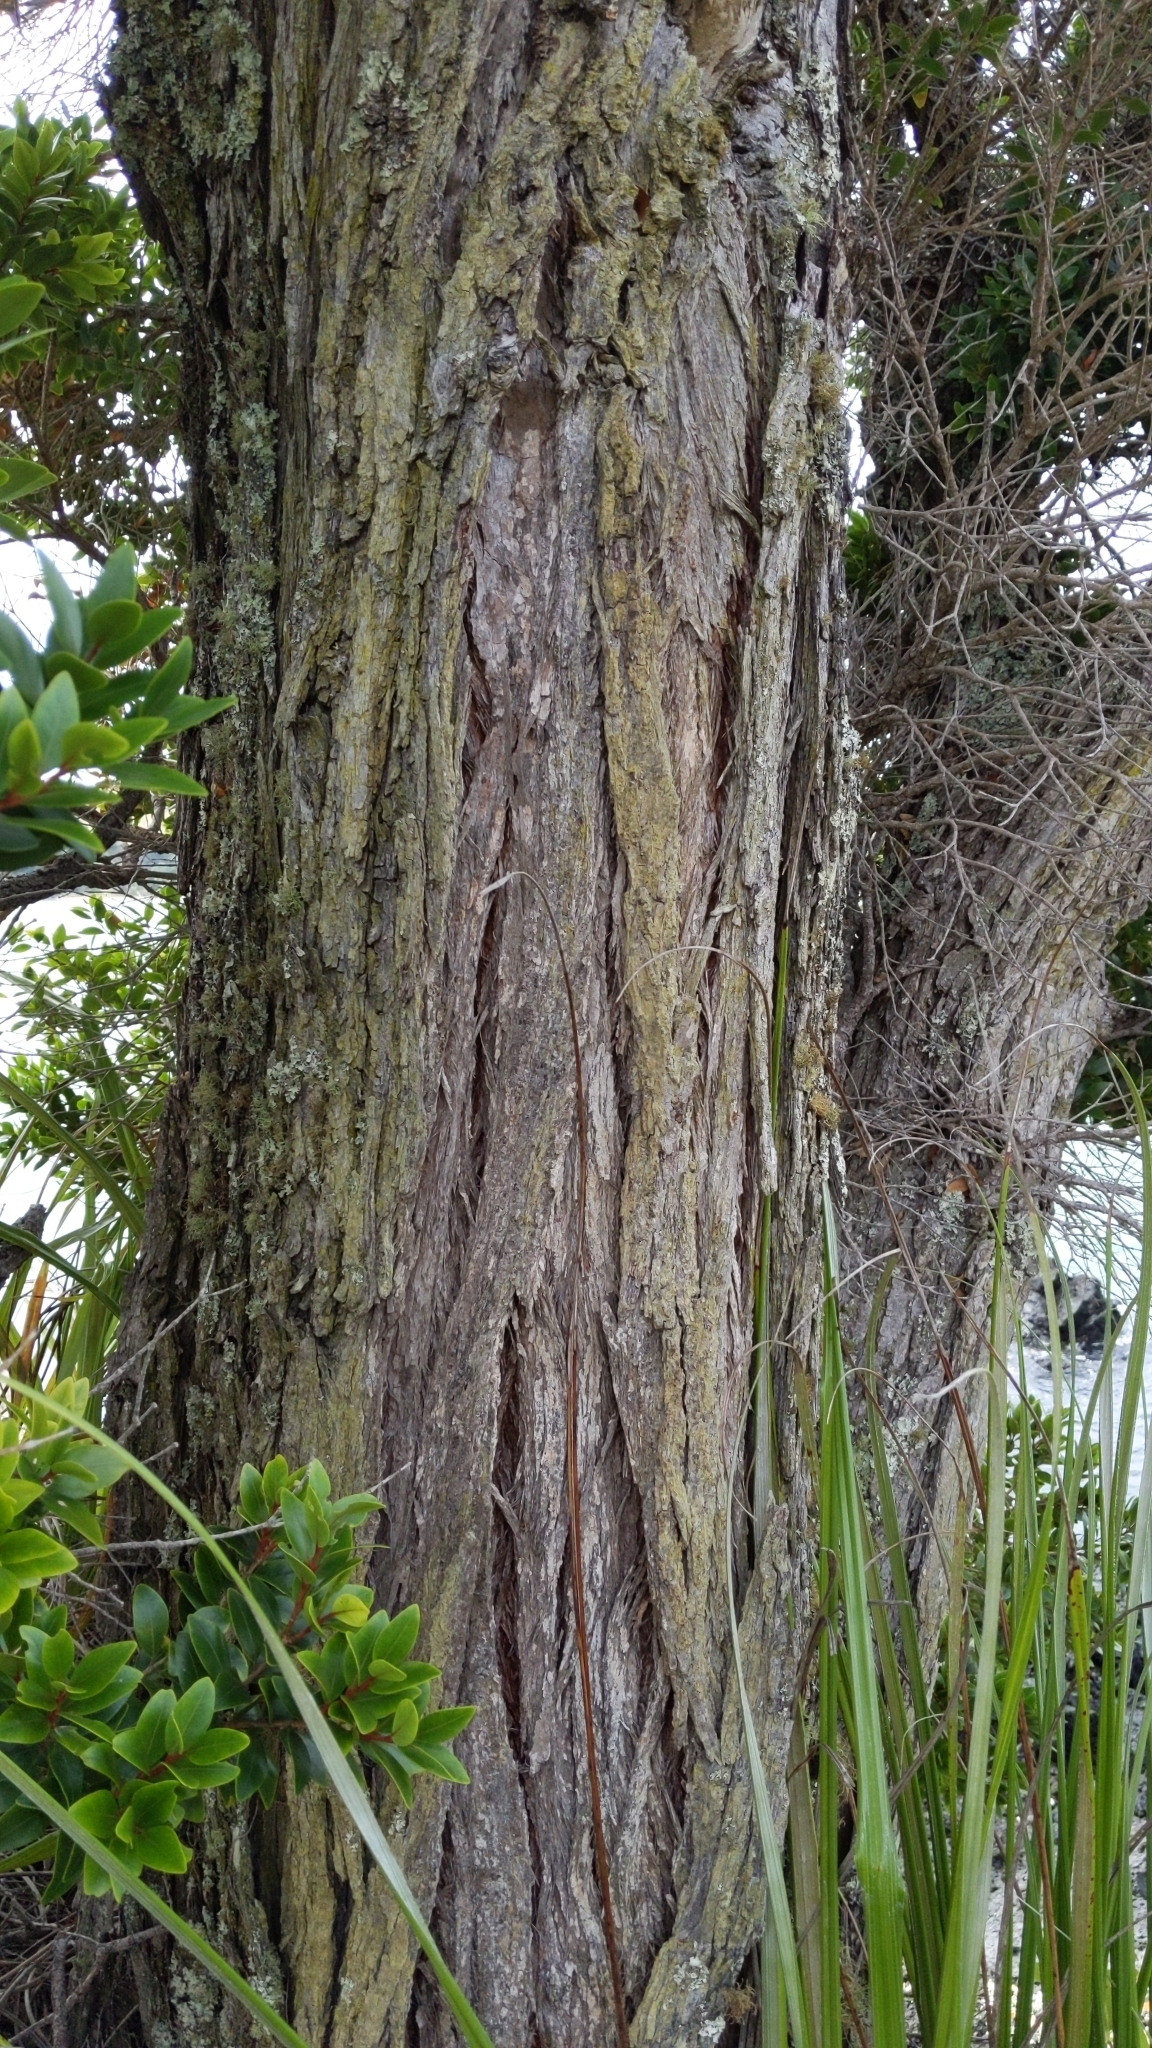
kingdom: Plantae
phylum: Tracheophyta
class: Magnoliopsida
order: Myrtales
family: Myrtaceae
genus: Metrosideros
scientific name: Metrosideros robusta
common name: Northern rata
